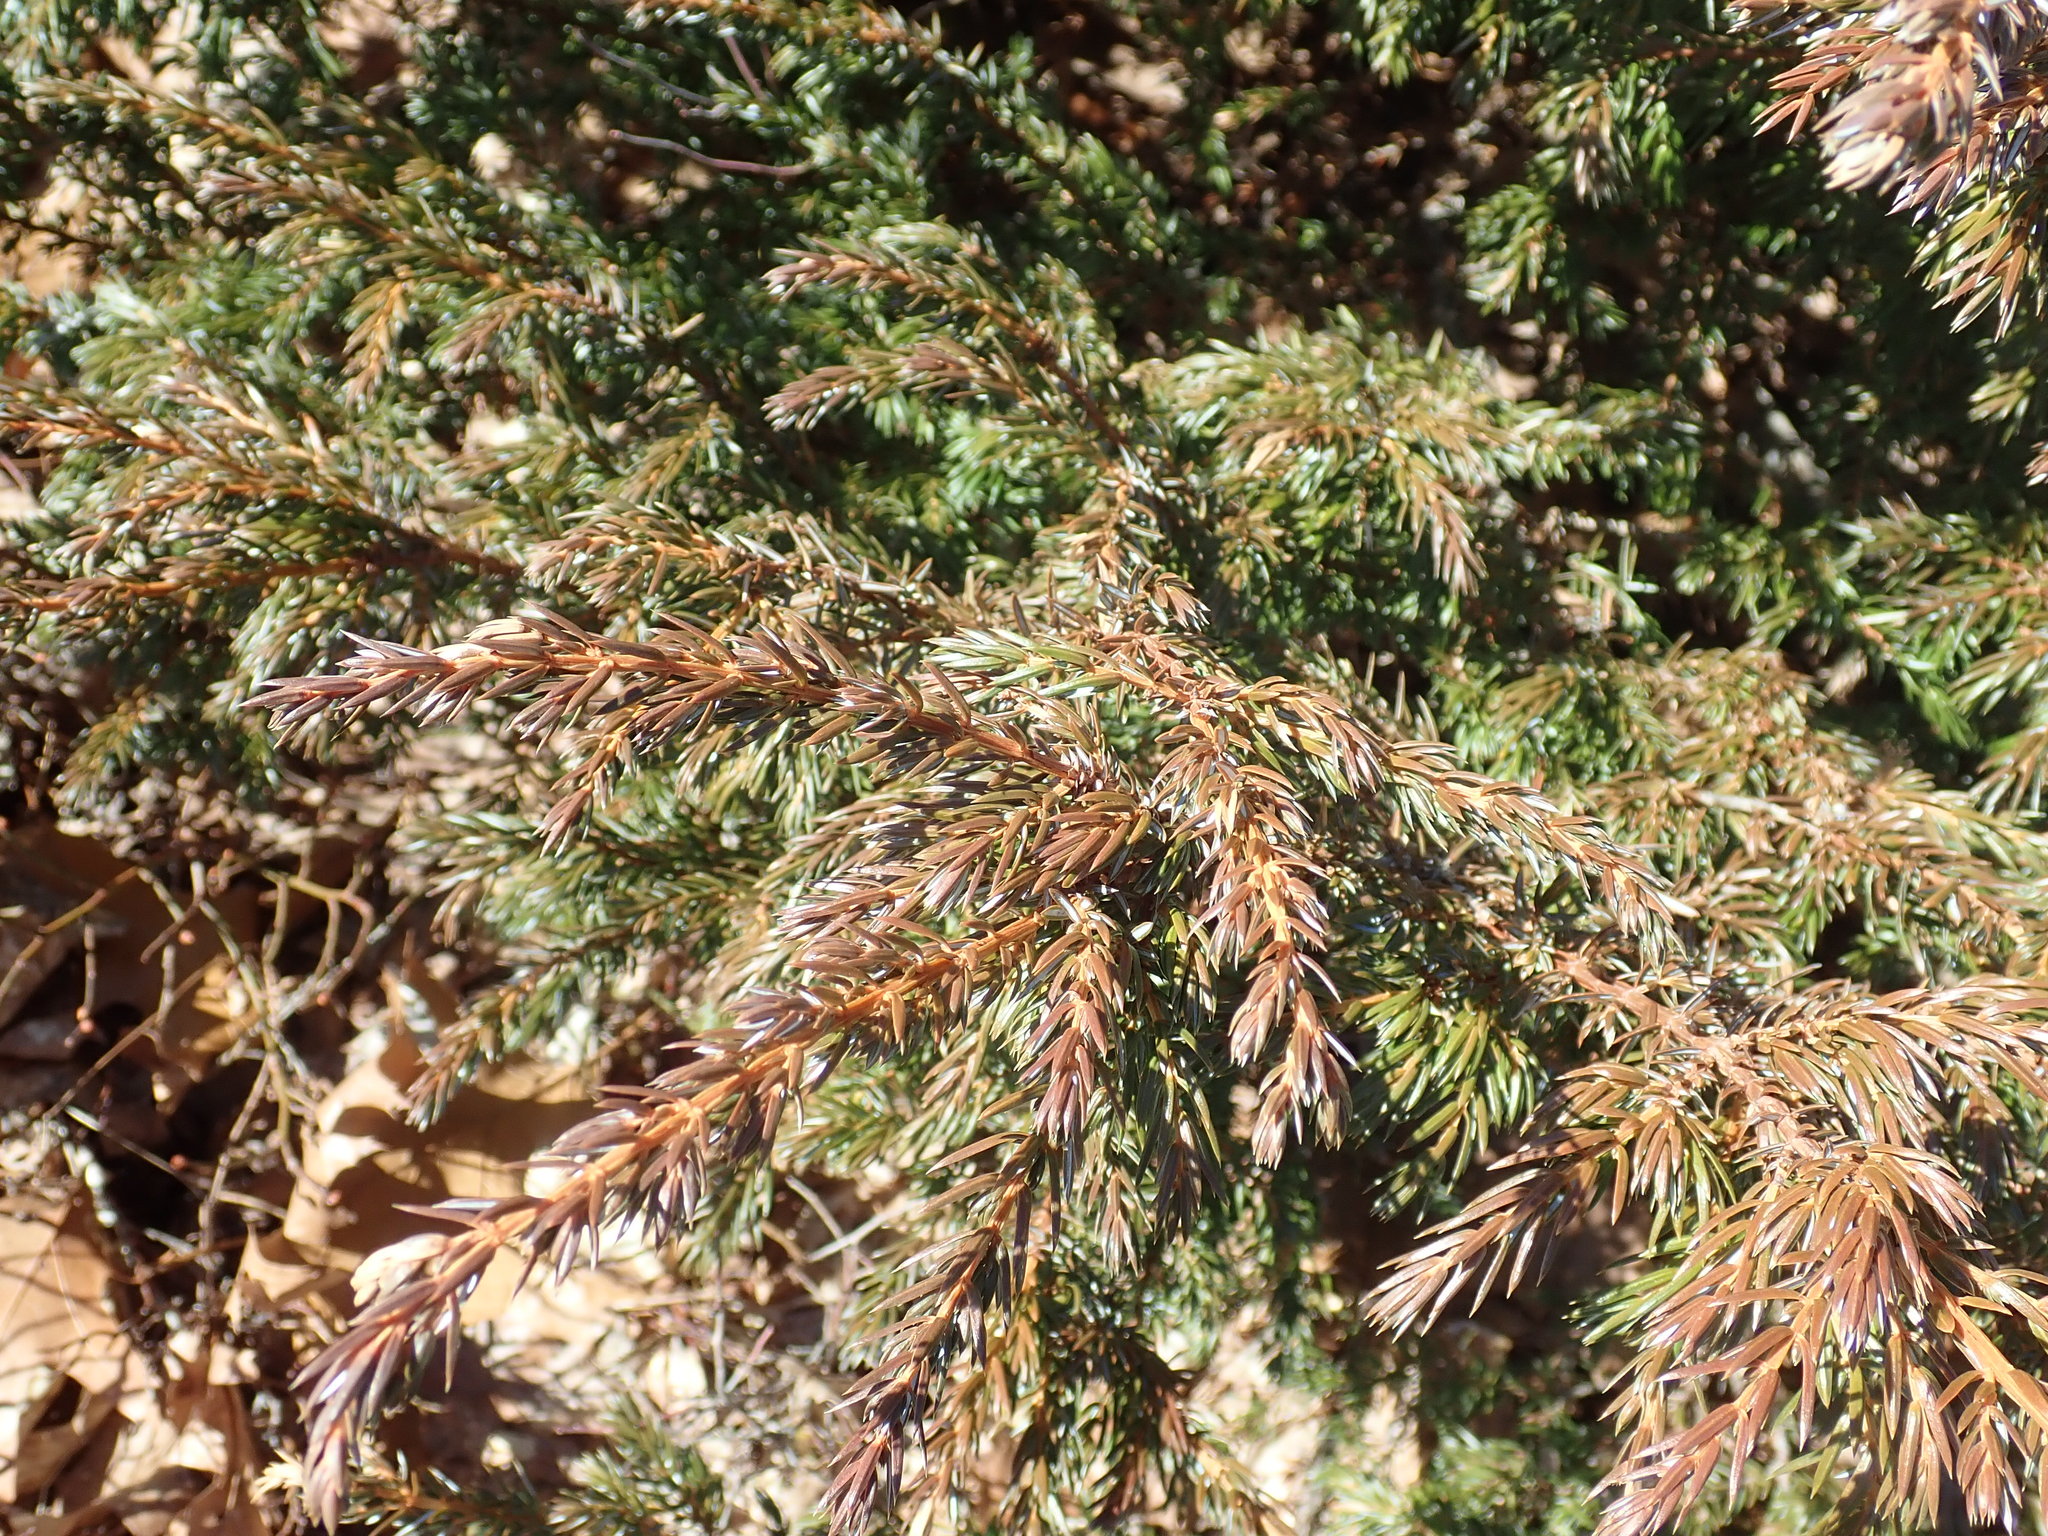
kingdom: Plantae
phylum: Tracheophyta
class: Pinopsida
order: Pinales
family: Cupressaceae
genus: Juniperus
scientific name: Juniperus communis
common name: Common juniper
